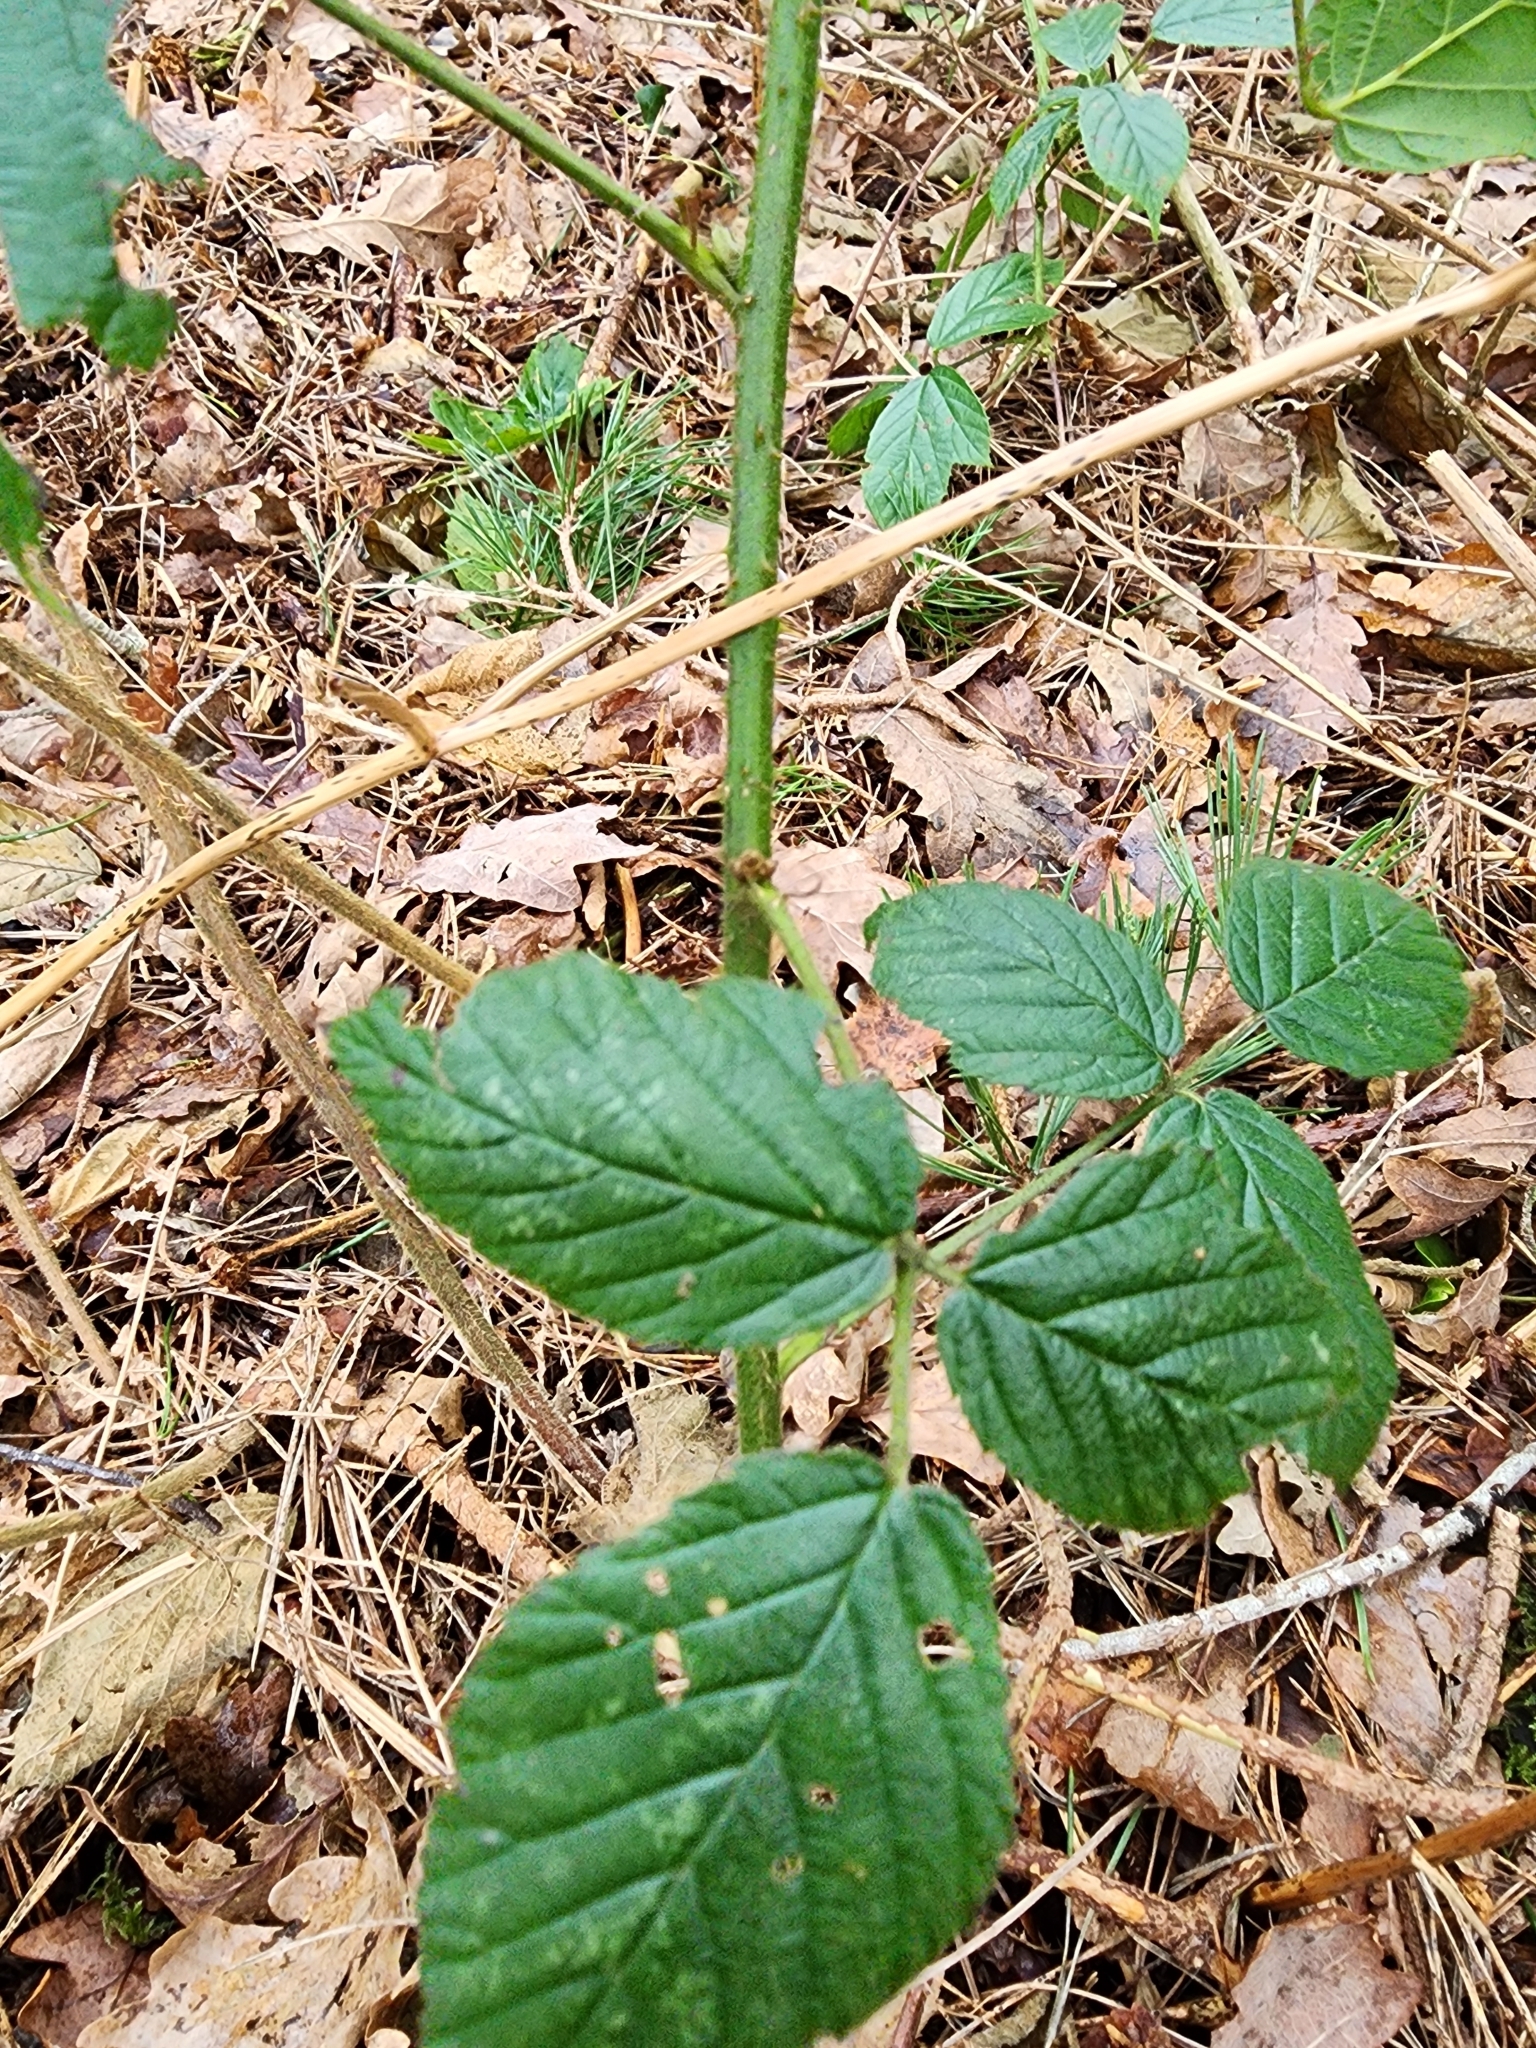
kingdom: Plantae
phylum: Tracheophyta
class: Magnoliopsida
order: Rosales
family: Rosaceae
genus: Rubus
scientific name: Rubus
